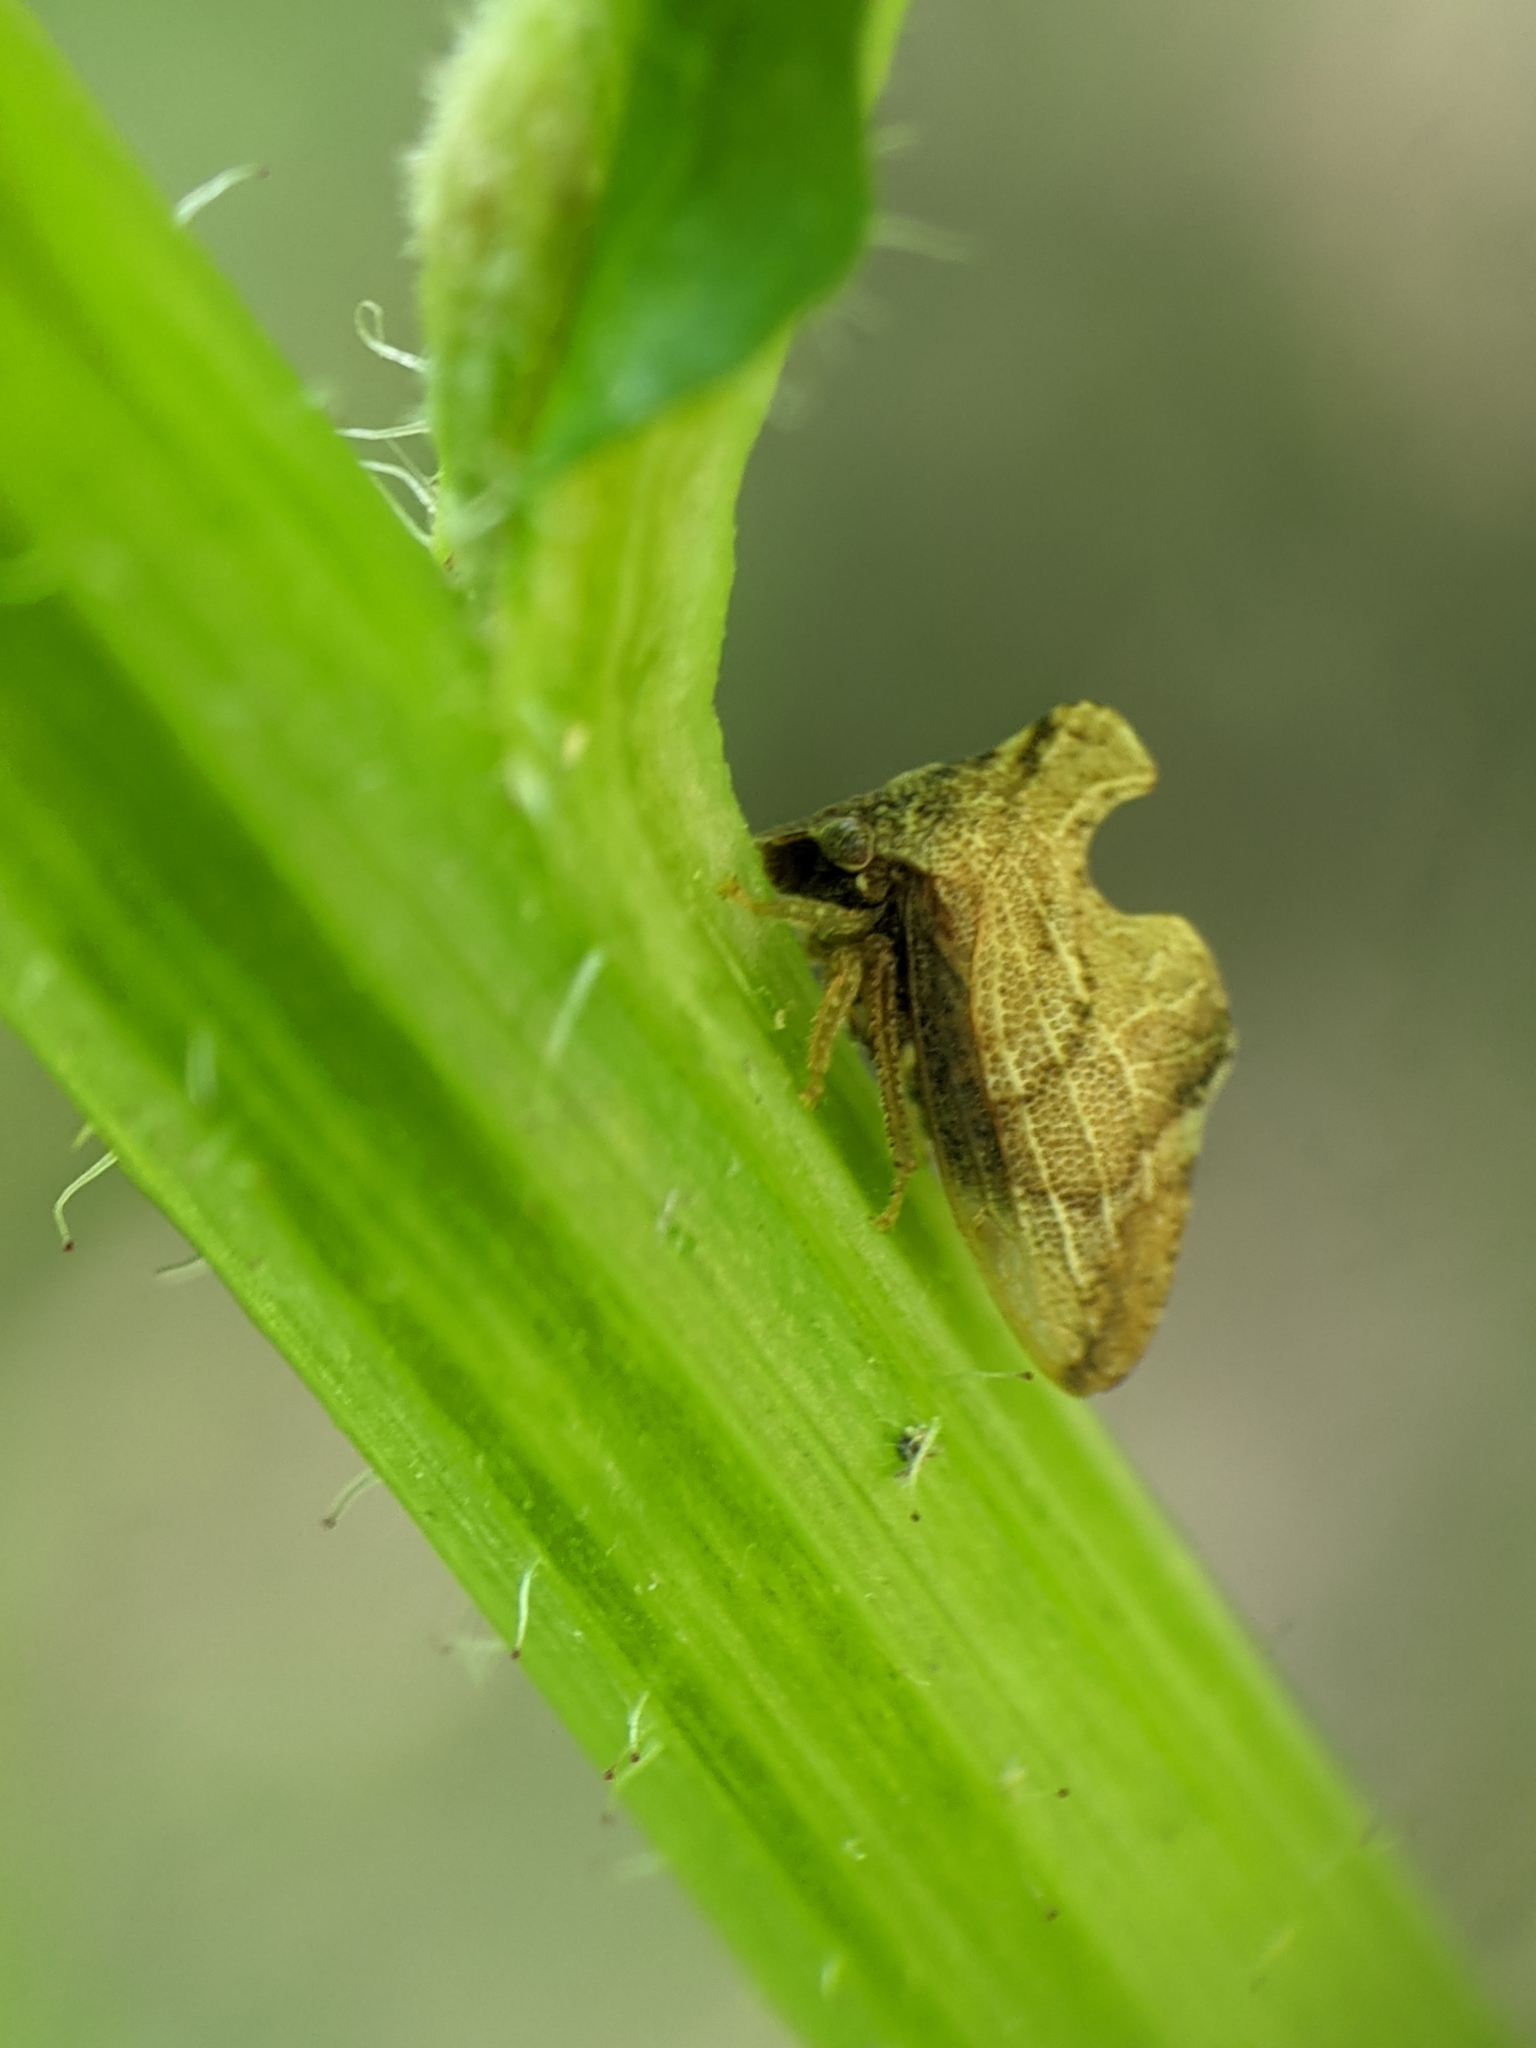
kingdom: Animalia
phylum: Arthropoda
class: Insecta
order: Hemiptera
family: Membracidae
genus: Entylia
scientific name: Entylia carinata
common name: Keeled treehopper
